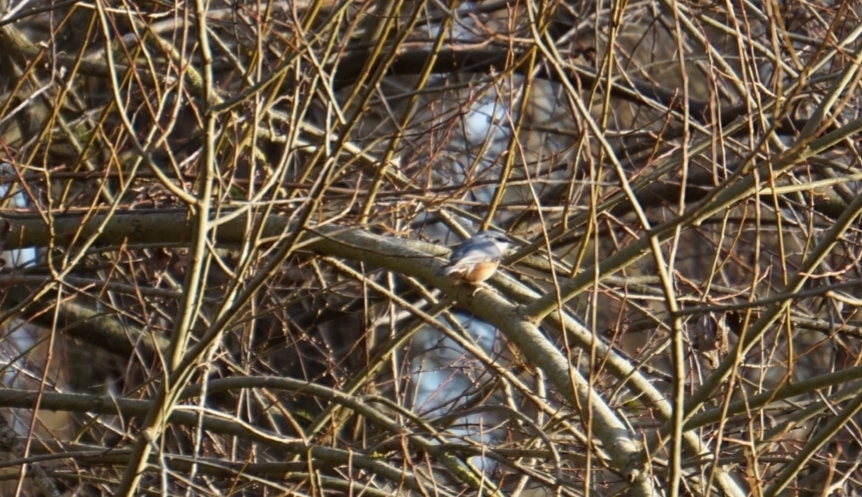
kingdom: Animalia
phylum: Chordata
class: Aves
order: Passeriformes
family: Sittidae
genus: Sitta
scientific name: Sitta europaea
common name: Eurasian nuthatch
